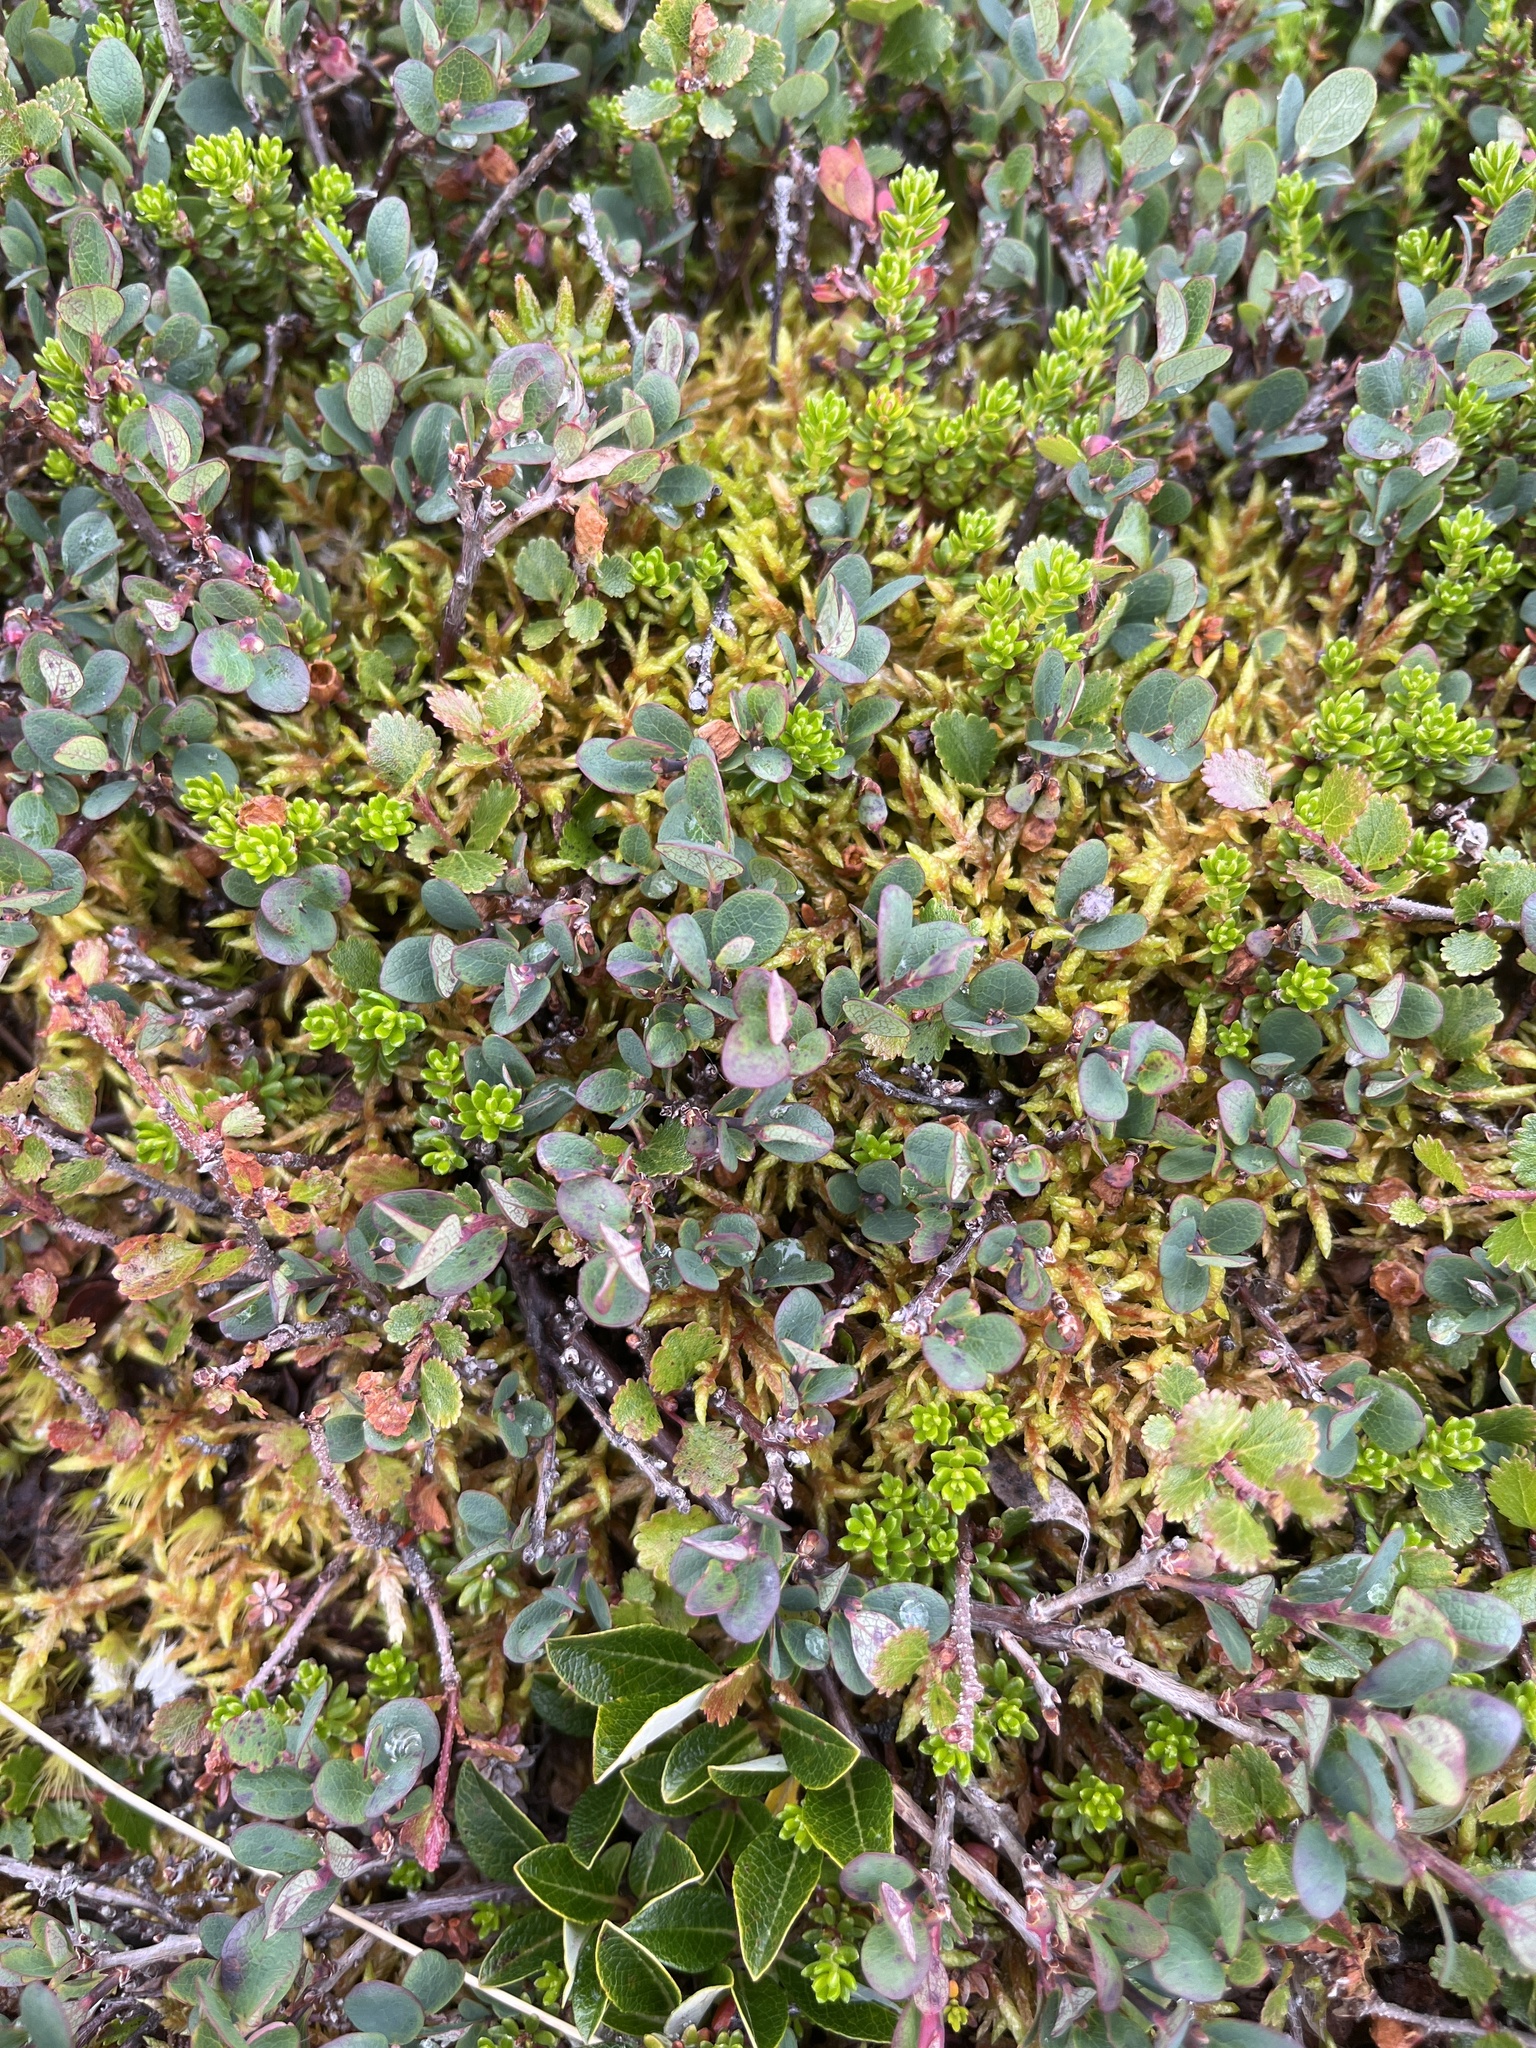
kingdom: Plantae
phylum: Tracheophyta
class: Magnoliopsida
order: Ericales
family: Ericaceae
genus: Vaccinium
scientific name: Vaccinium uliginosum
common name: Bog bilberry
